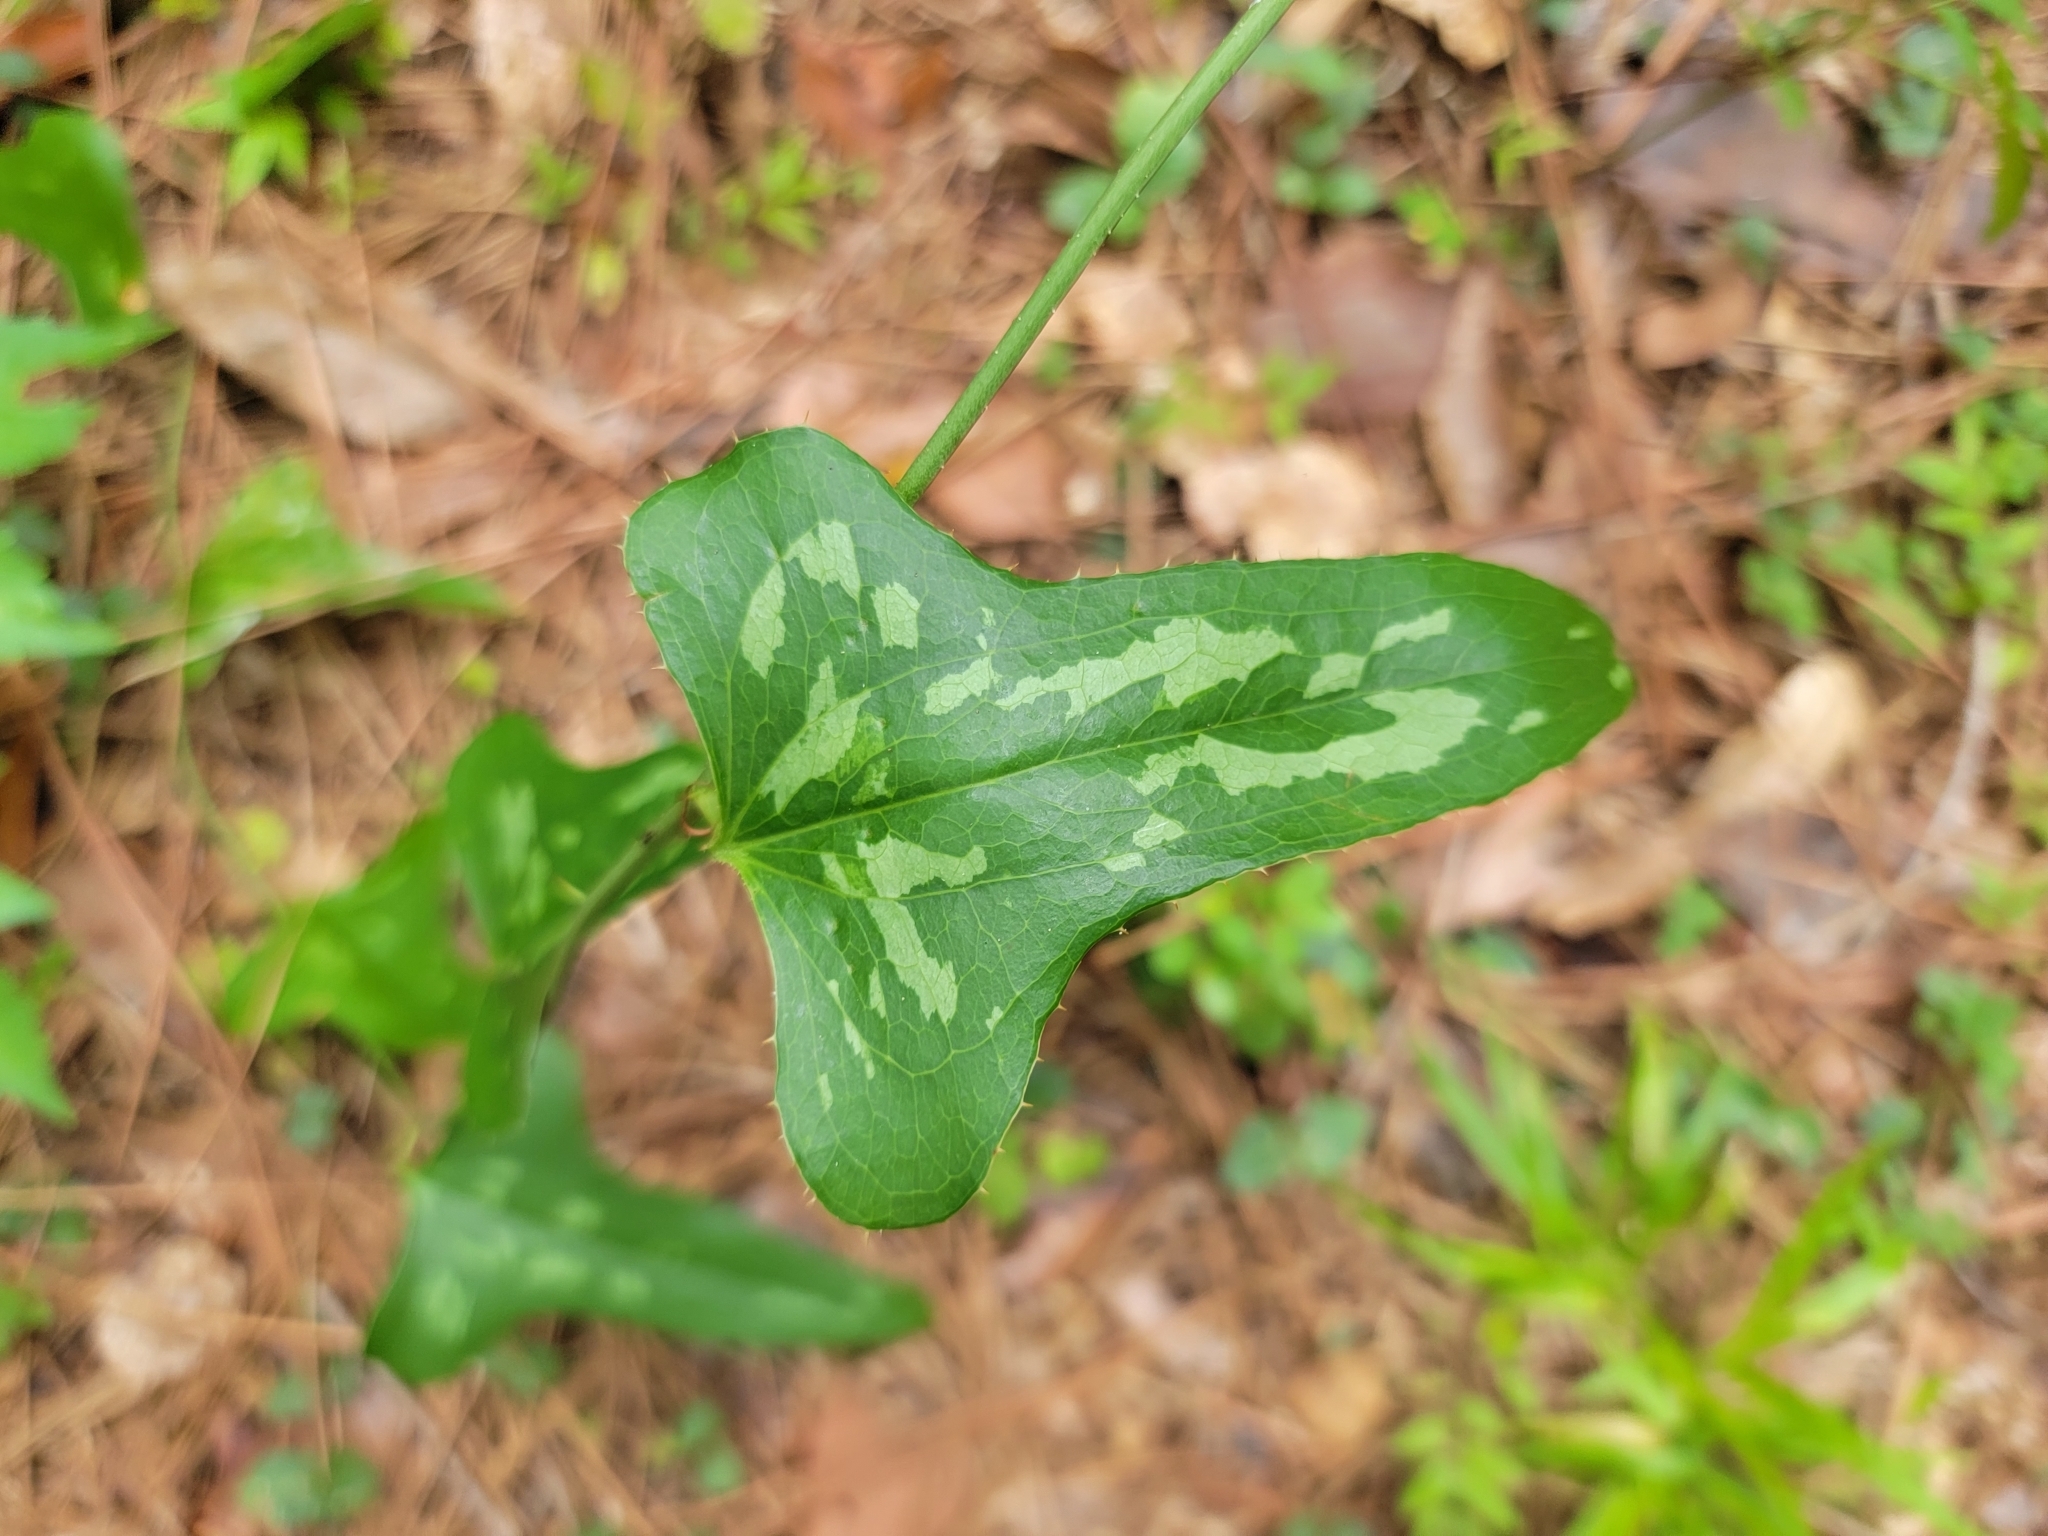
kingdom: Plantae
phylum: Tracheophyta
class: Liliopsida
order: Liliales
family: Smilacaceae
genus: Smilax
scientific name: Smilax bona-nox
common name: Catbrier
